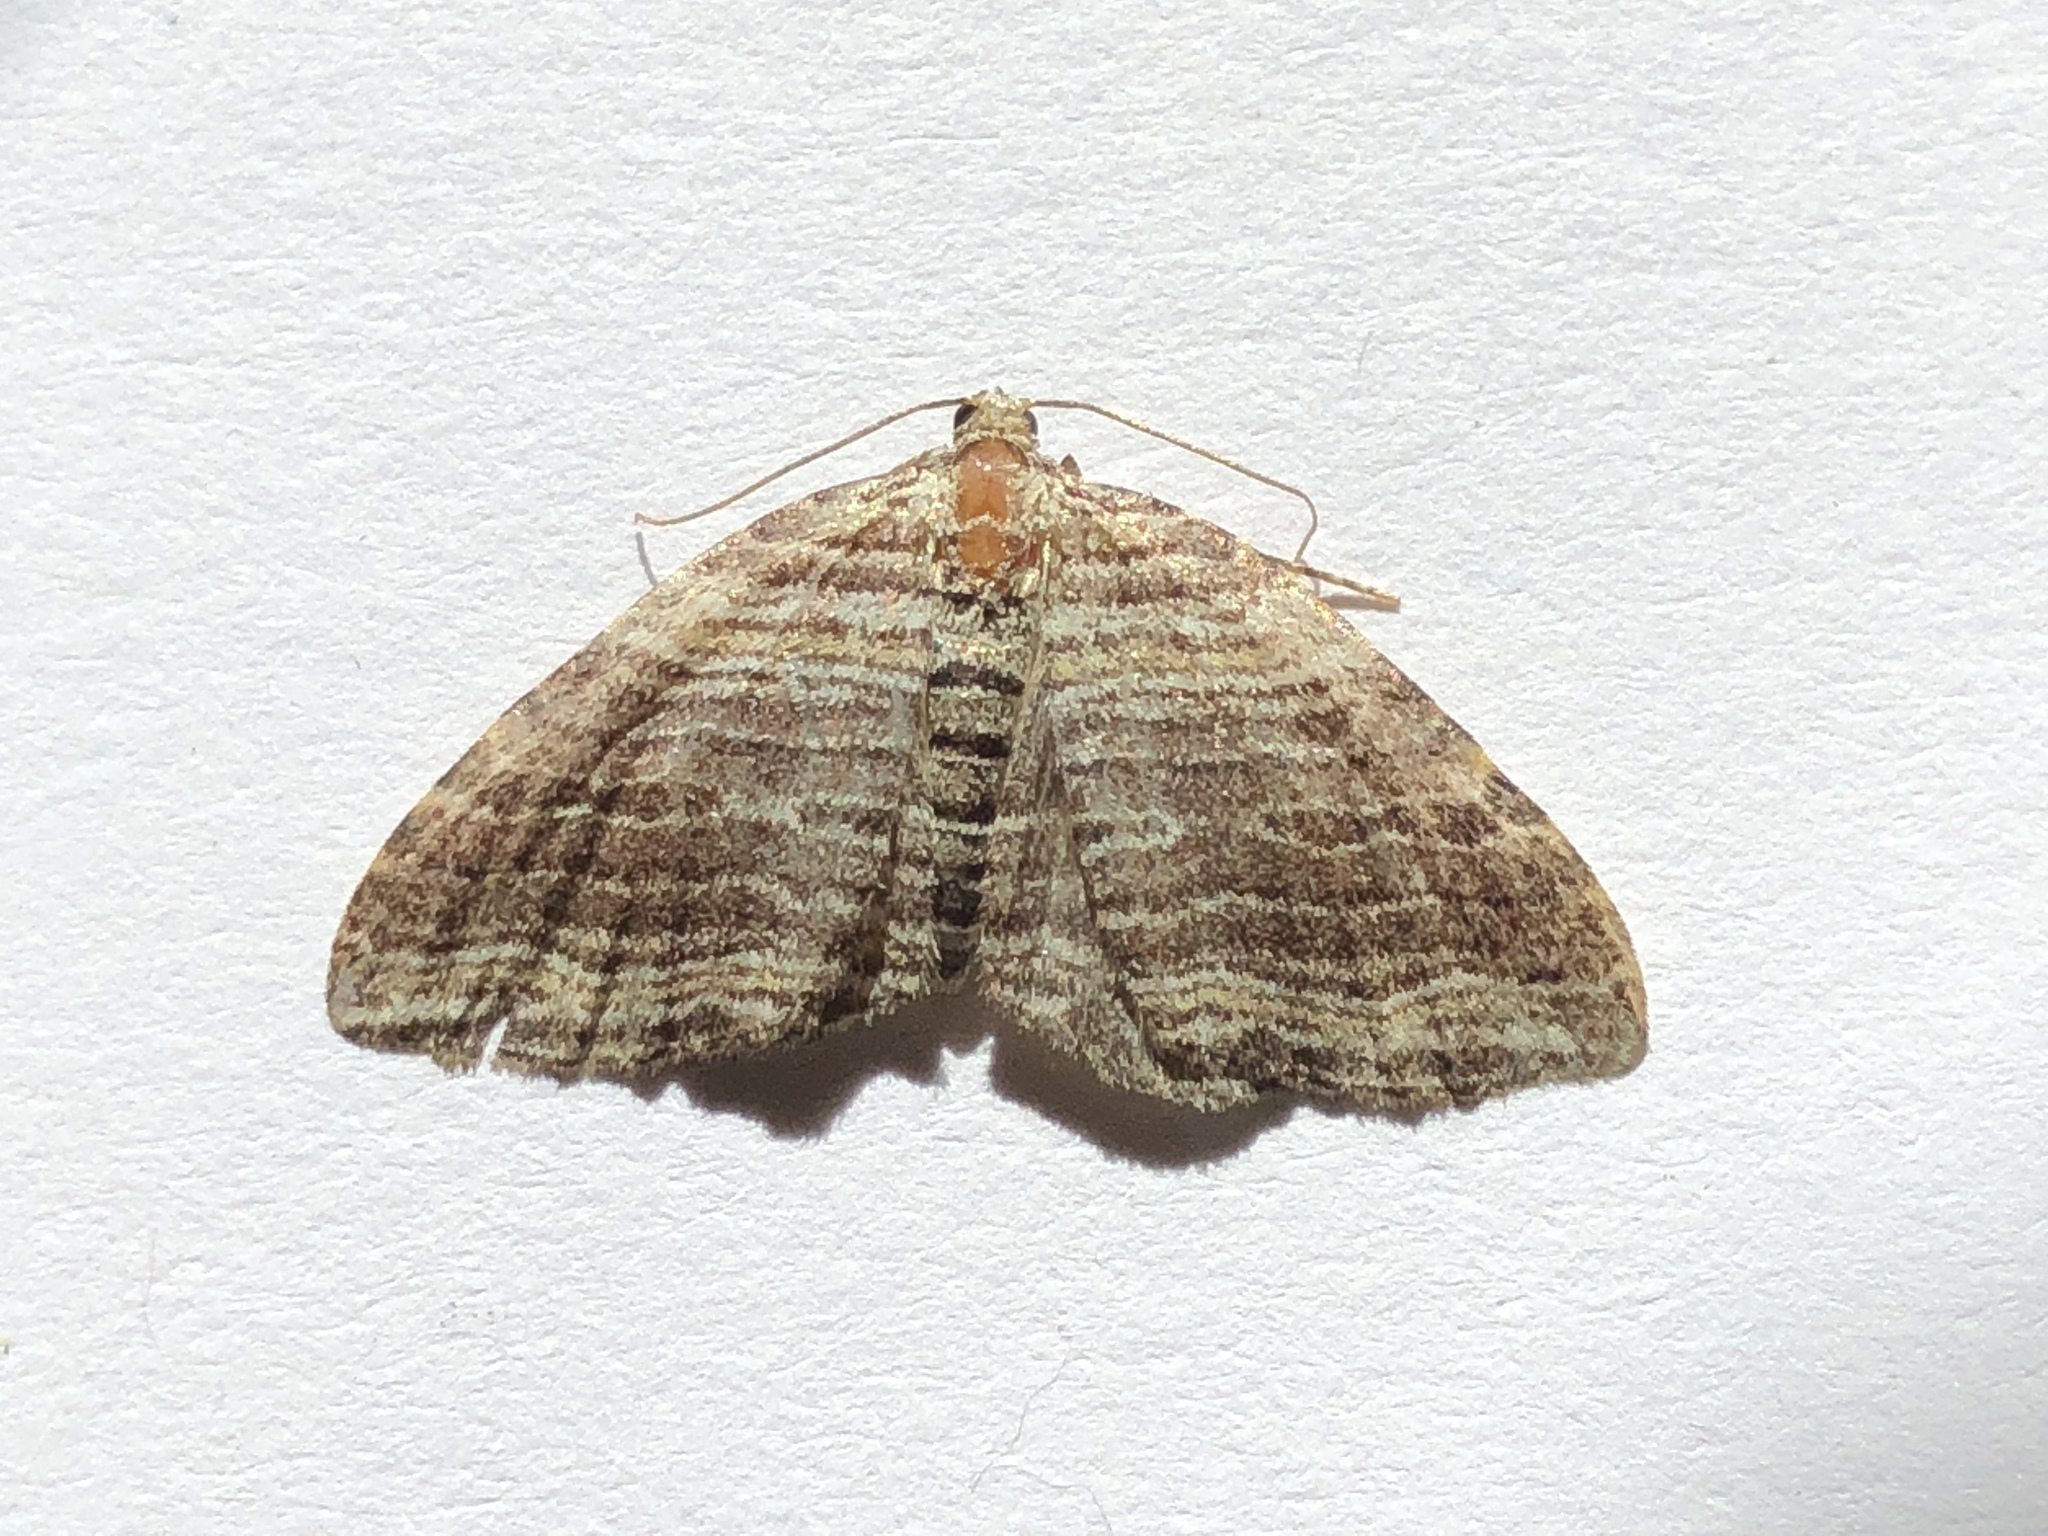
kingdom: Animalia
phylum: Arthropoda
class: Insecta
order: Lepidoptera
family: Geometridae
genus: Anticlea
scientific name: Anticlea multiferata
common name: Many-lined carpet
